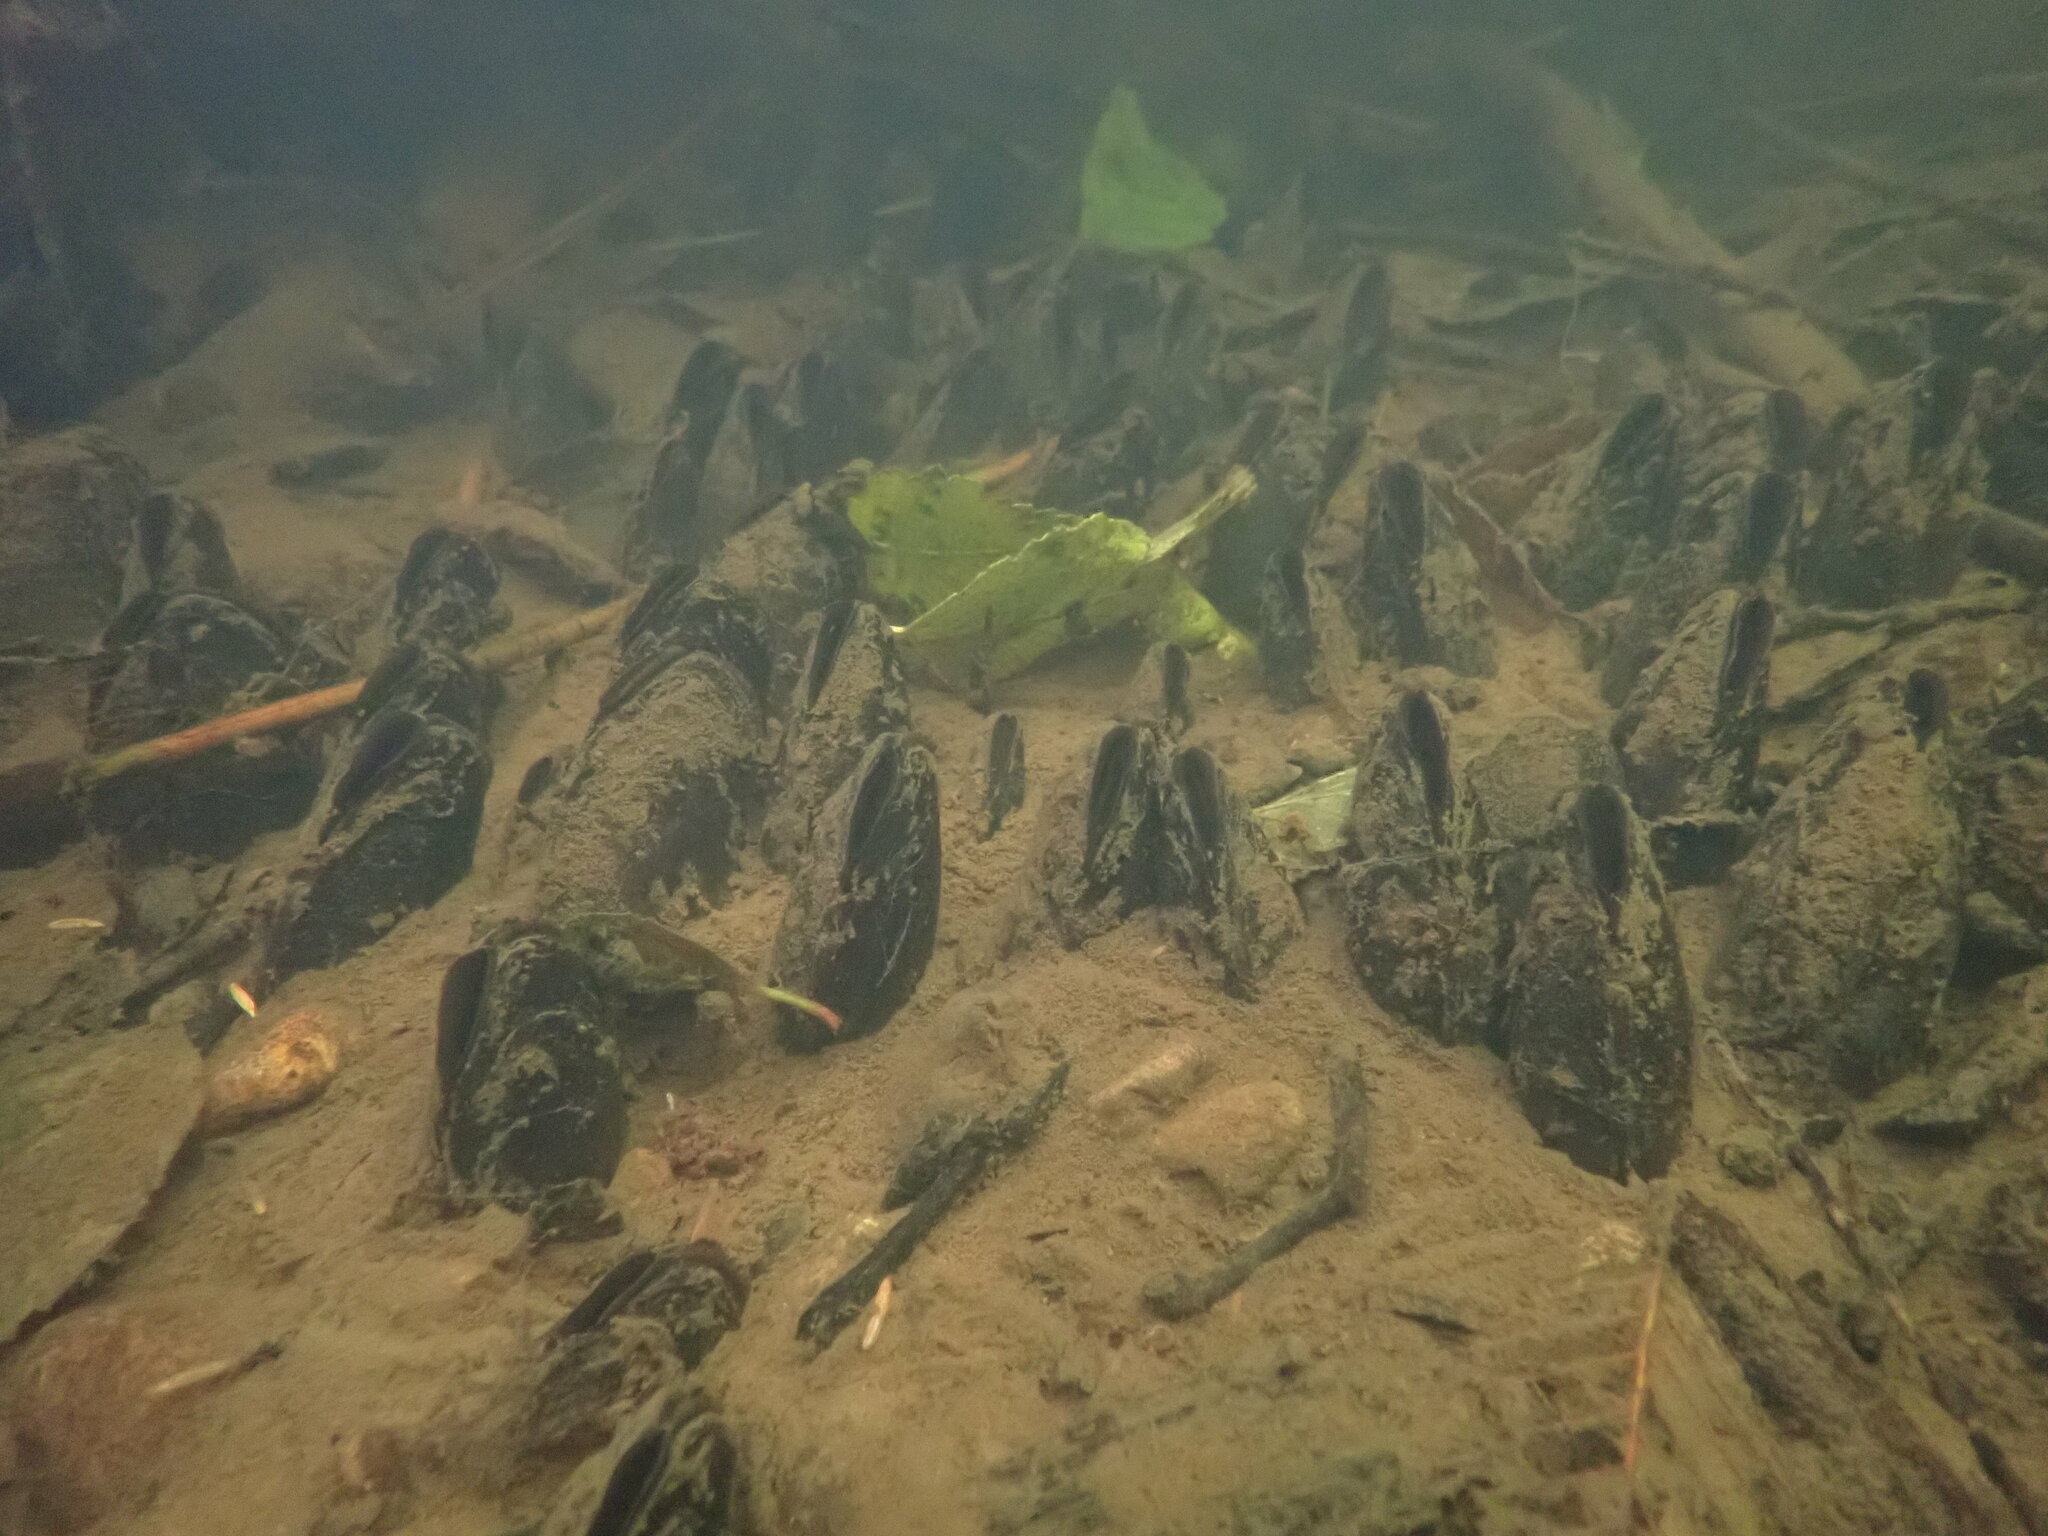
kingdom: Animalia
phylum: Mollusca
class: Bivalvia
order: Unionida
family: Margaritiferidae
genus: Margaritifera
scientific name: Margaritifera falcata
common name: Western pearlshell
